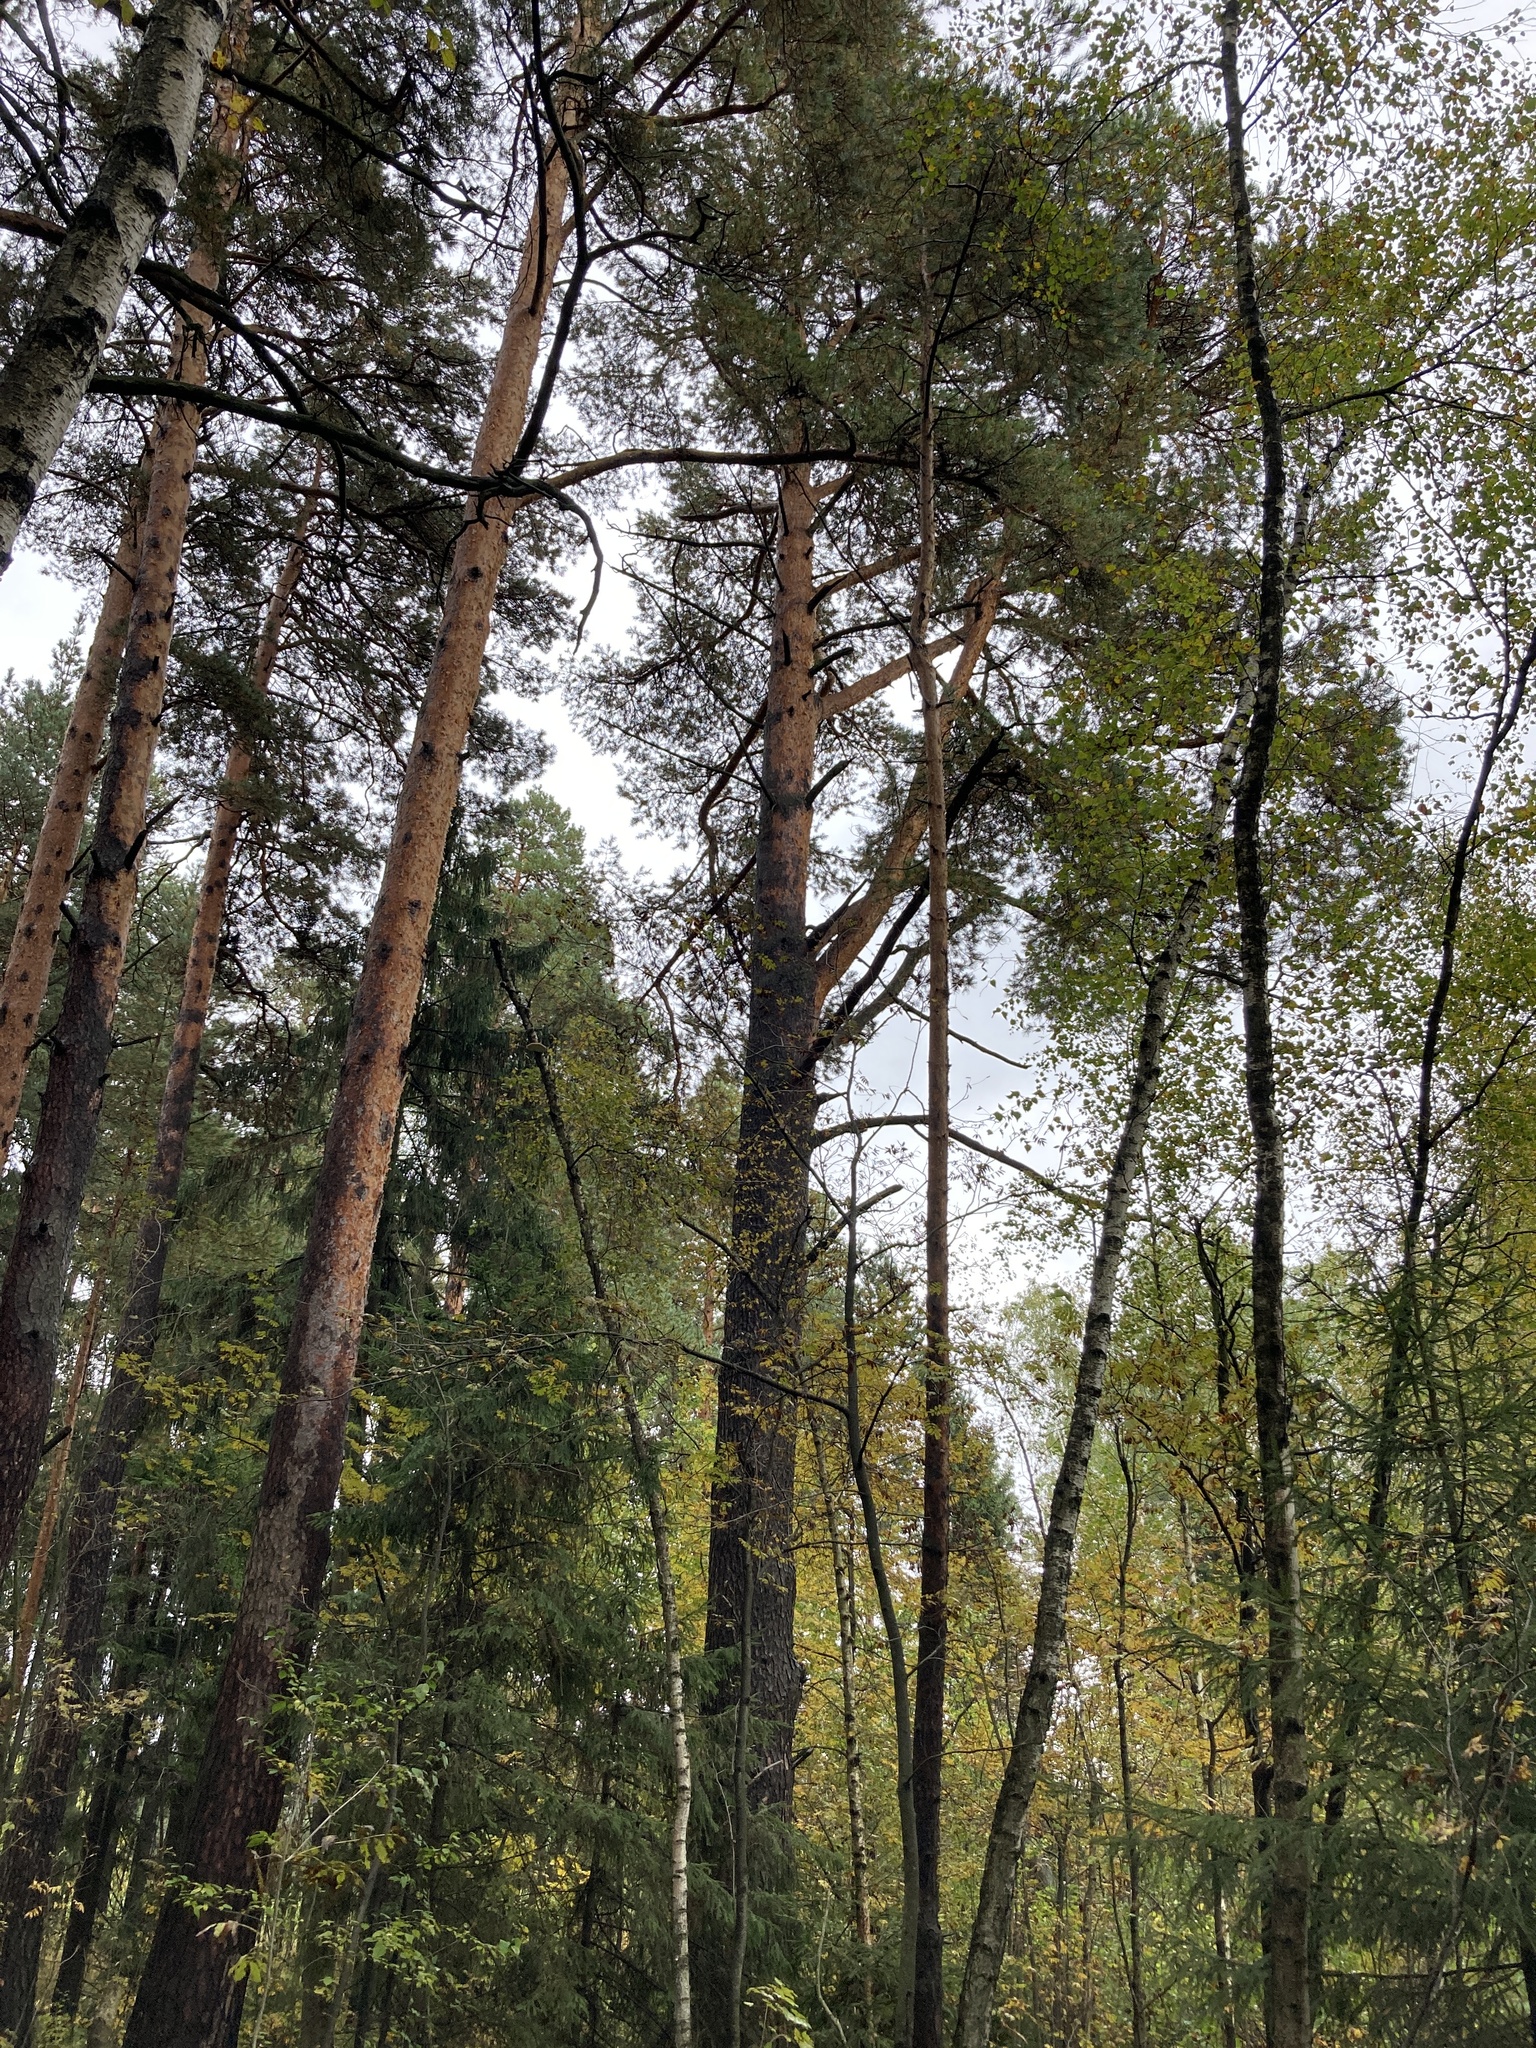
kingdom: Plantae
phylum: Tracheophyta
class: Pinopsida
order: Pinales
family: Pinaceae
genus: Pinus
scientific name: Pinus sylvestris
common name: Scots pine
